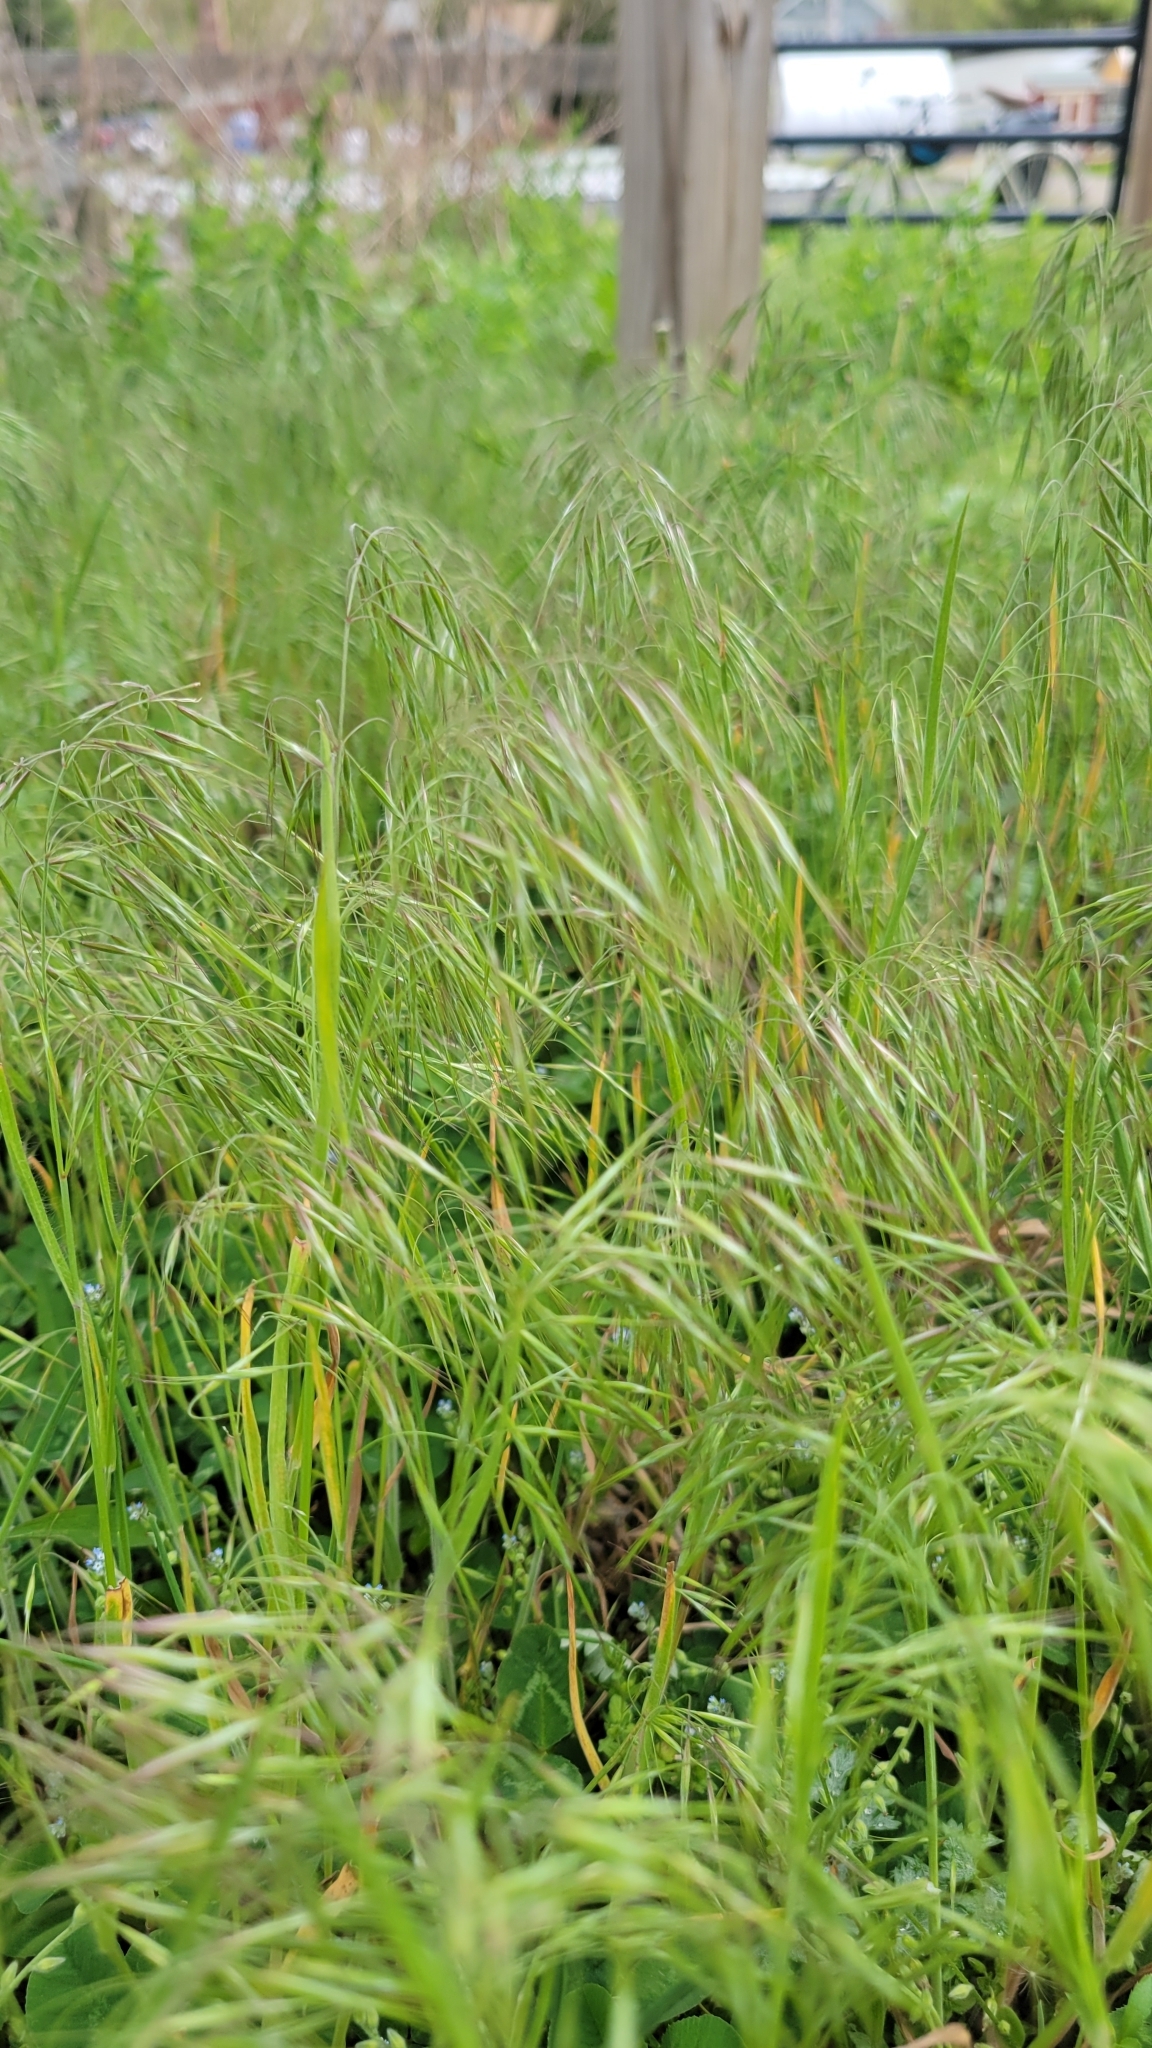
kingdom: Plantae
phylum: Tracheophyta
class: Liliopsida
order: Poales
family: Poaceae
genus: Bromus
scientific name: Bromus tectorum
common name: Cheatgrass
